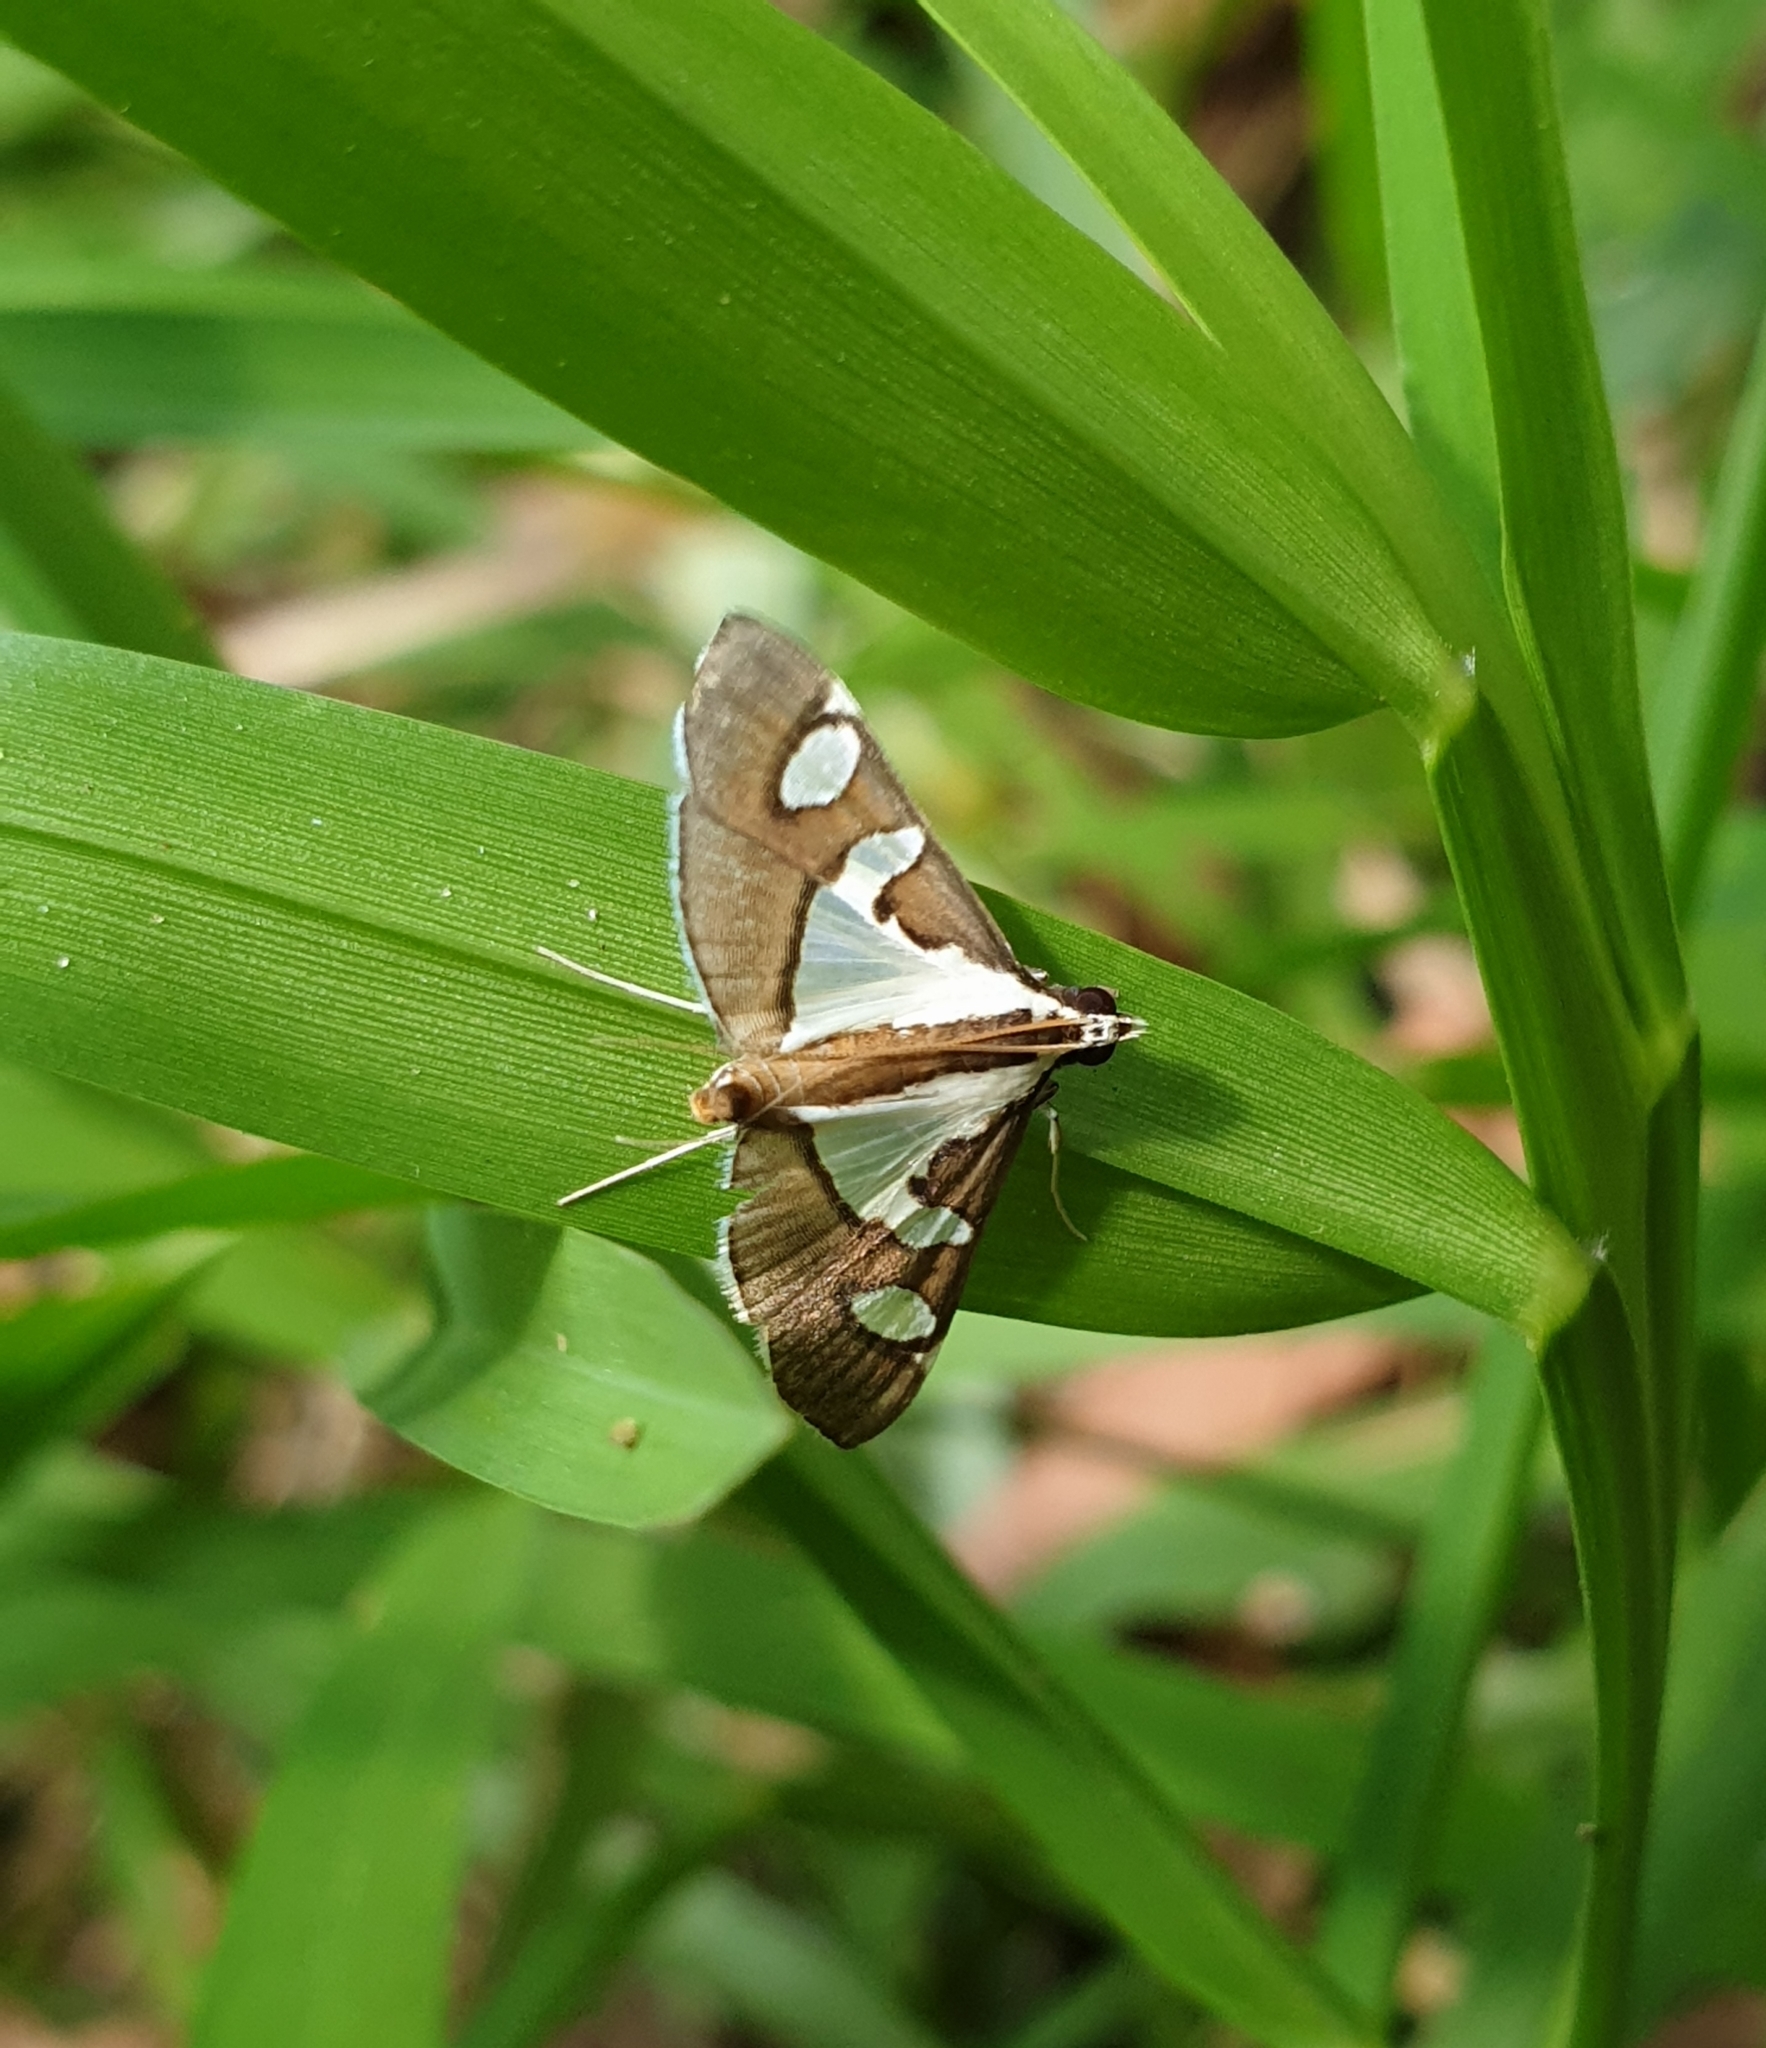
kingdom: Animalia
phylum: Arthropoda
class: Insecta
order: Lepidoptera
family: Crambidae
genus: Glyphodes
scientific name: Glyphodes bicolor
